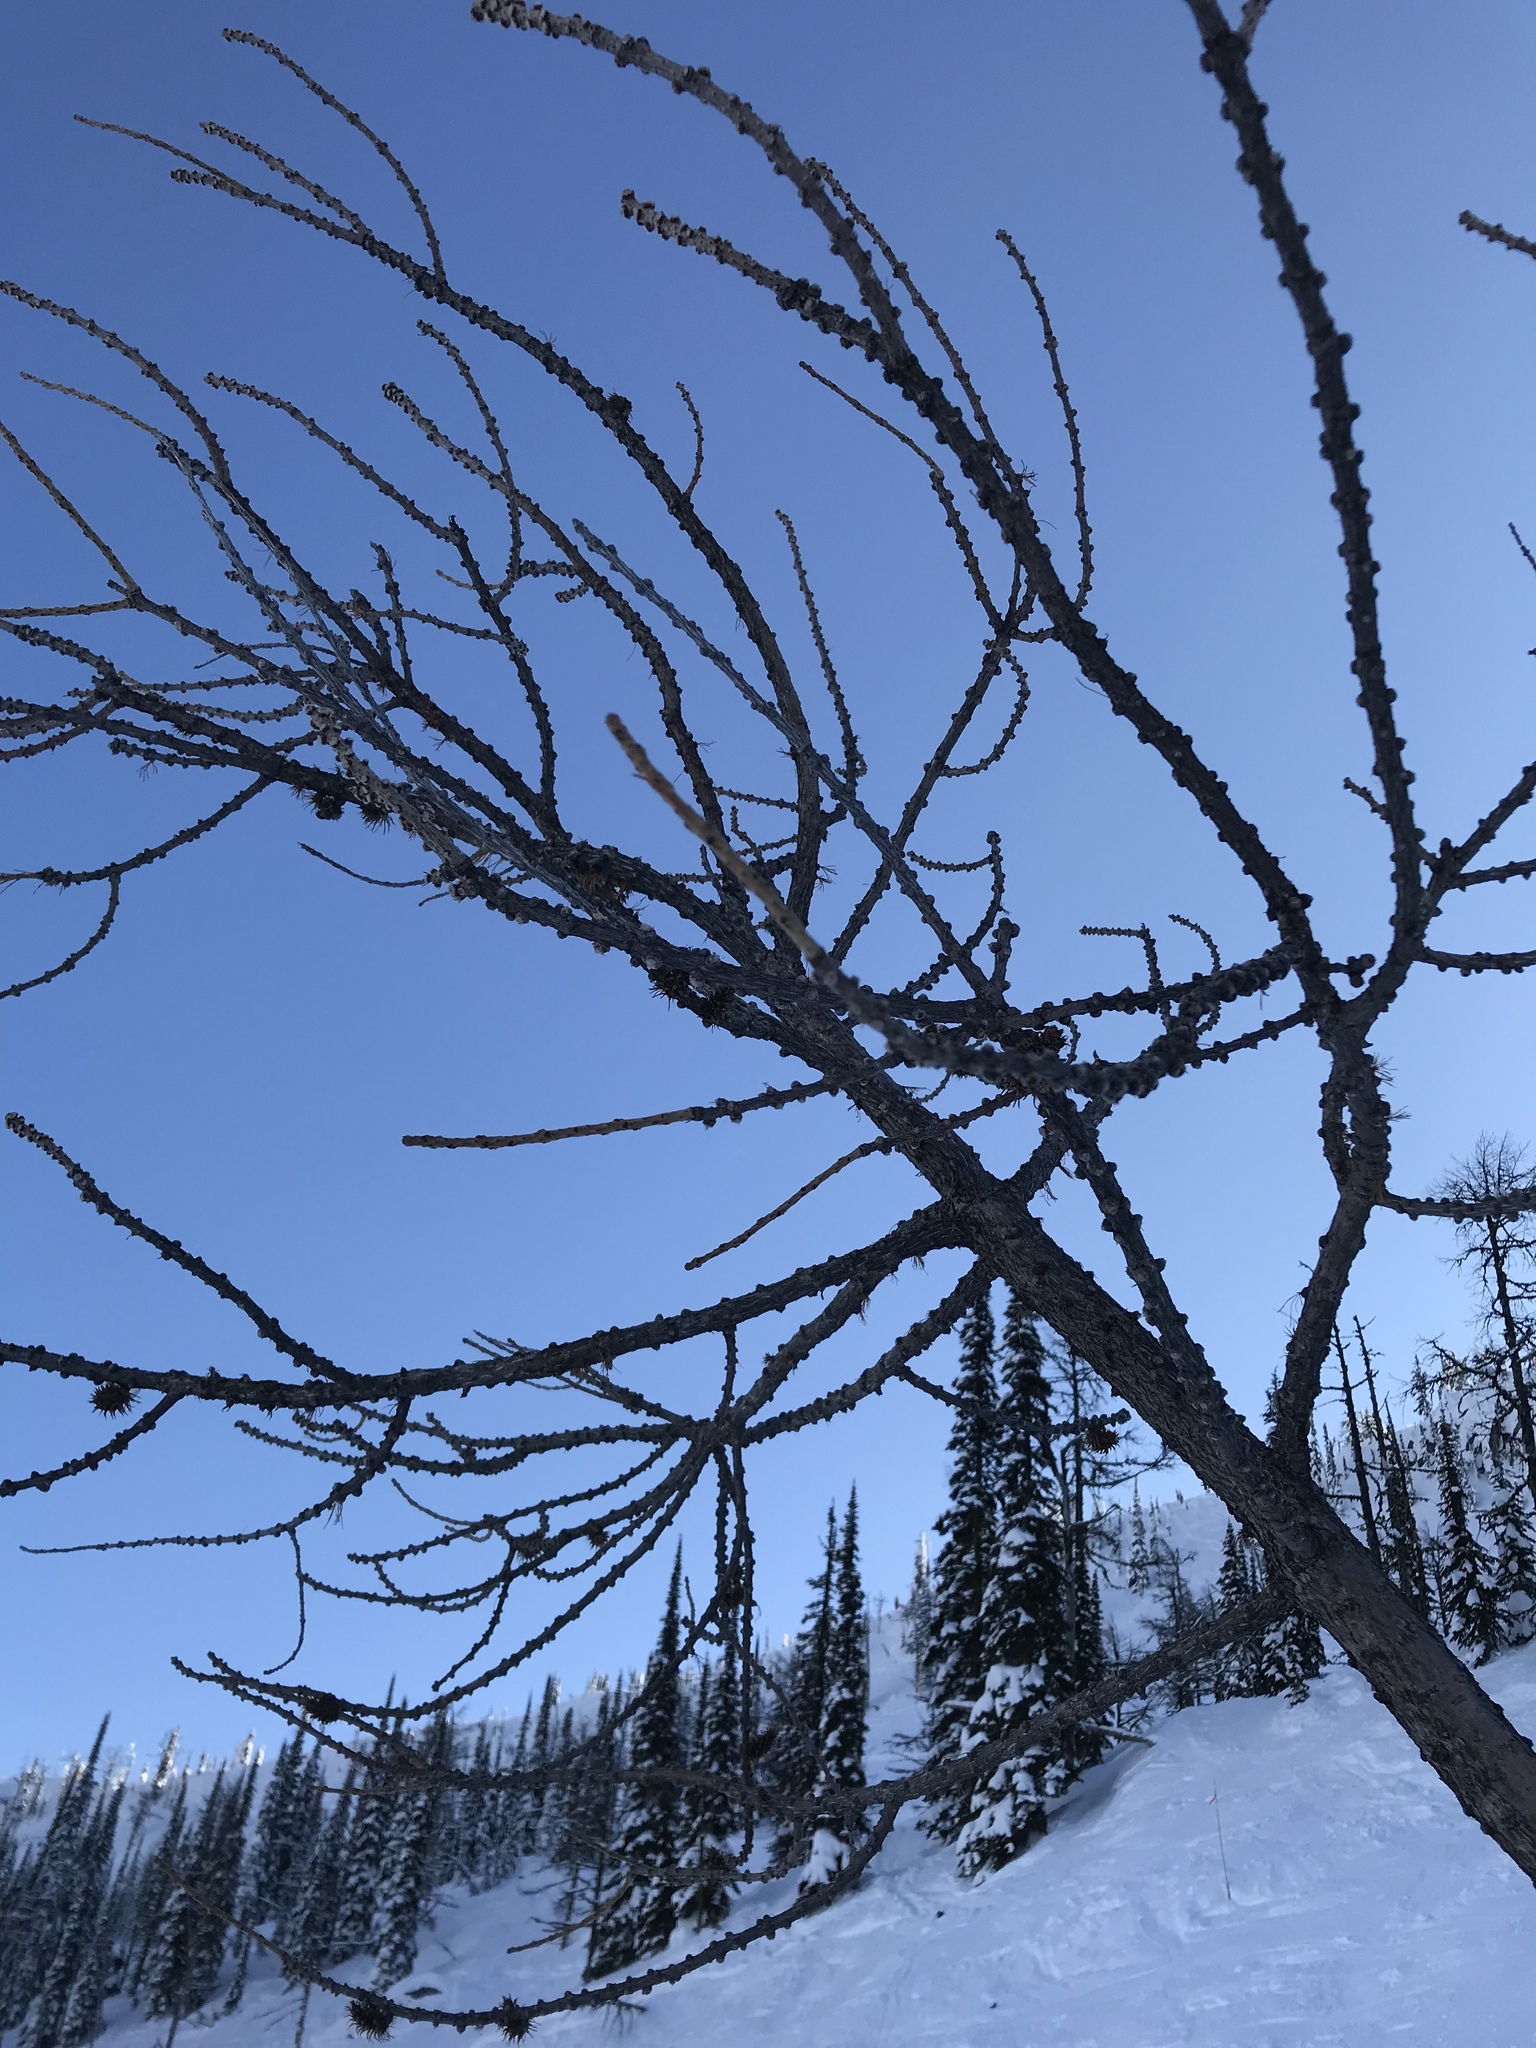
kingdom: Plantae
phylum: Tracheophyta
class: Pinopsida
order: Pinales
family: Pinaceae
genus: Larix
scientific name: Larix occidentalis
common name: Western larch
